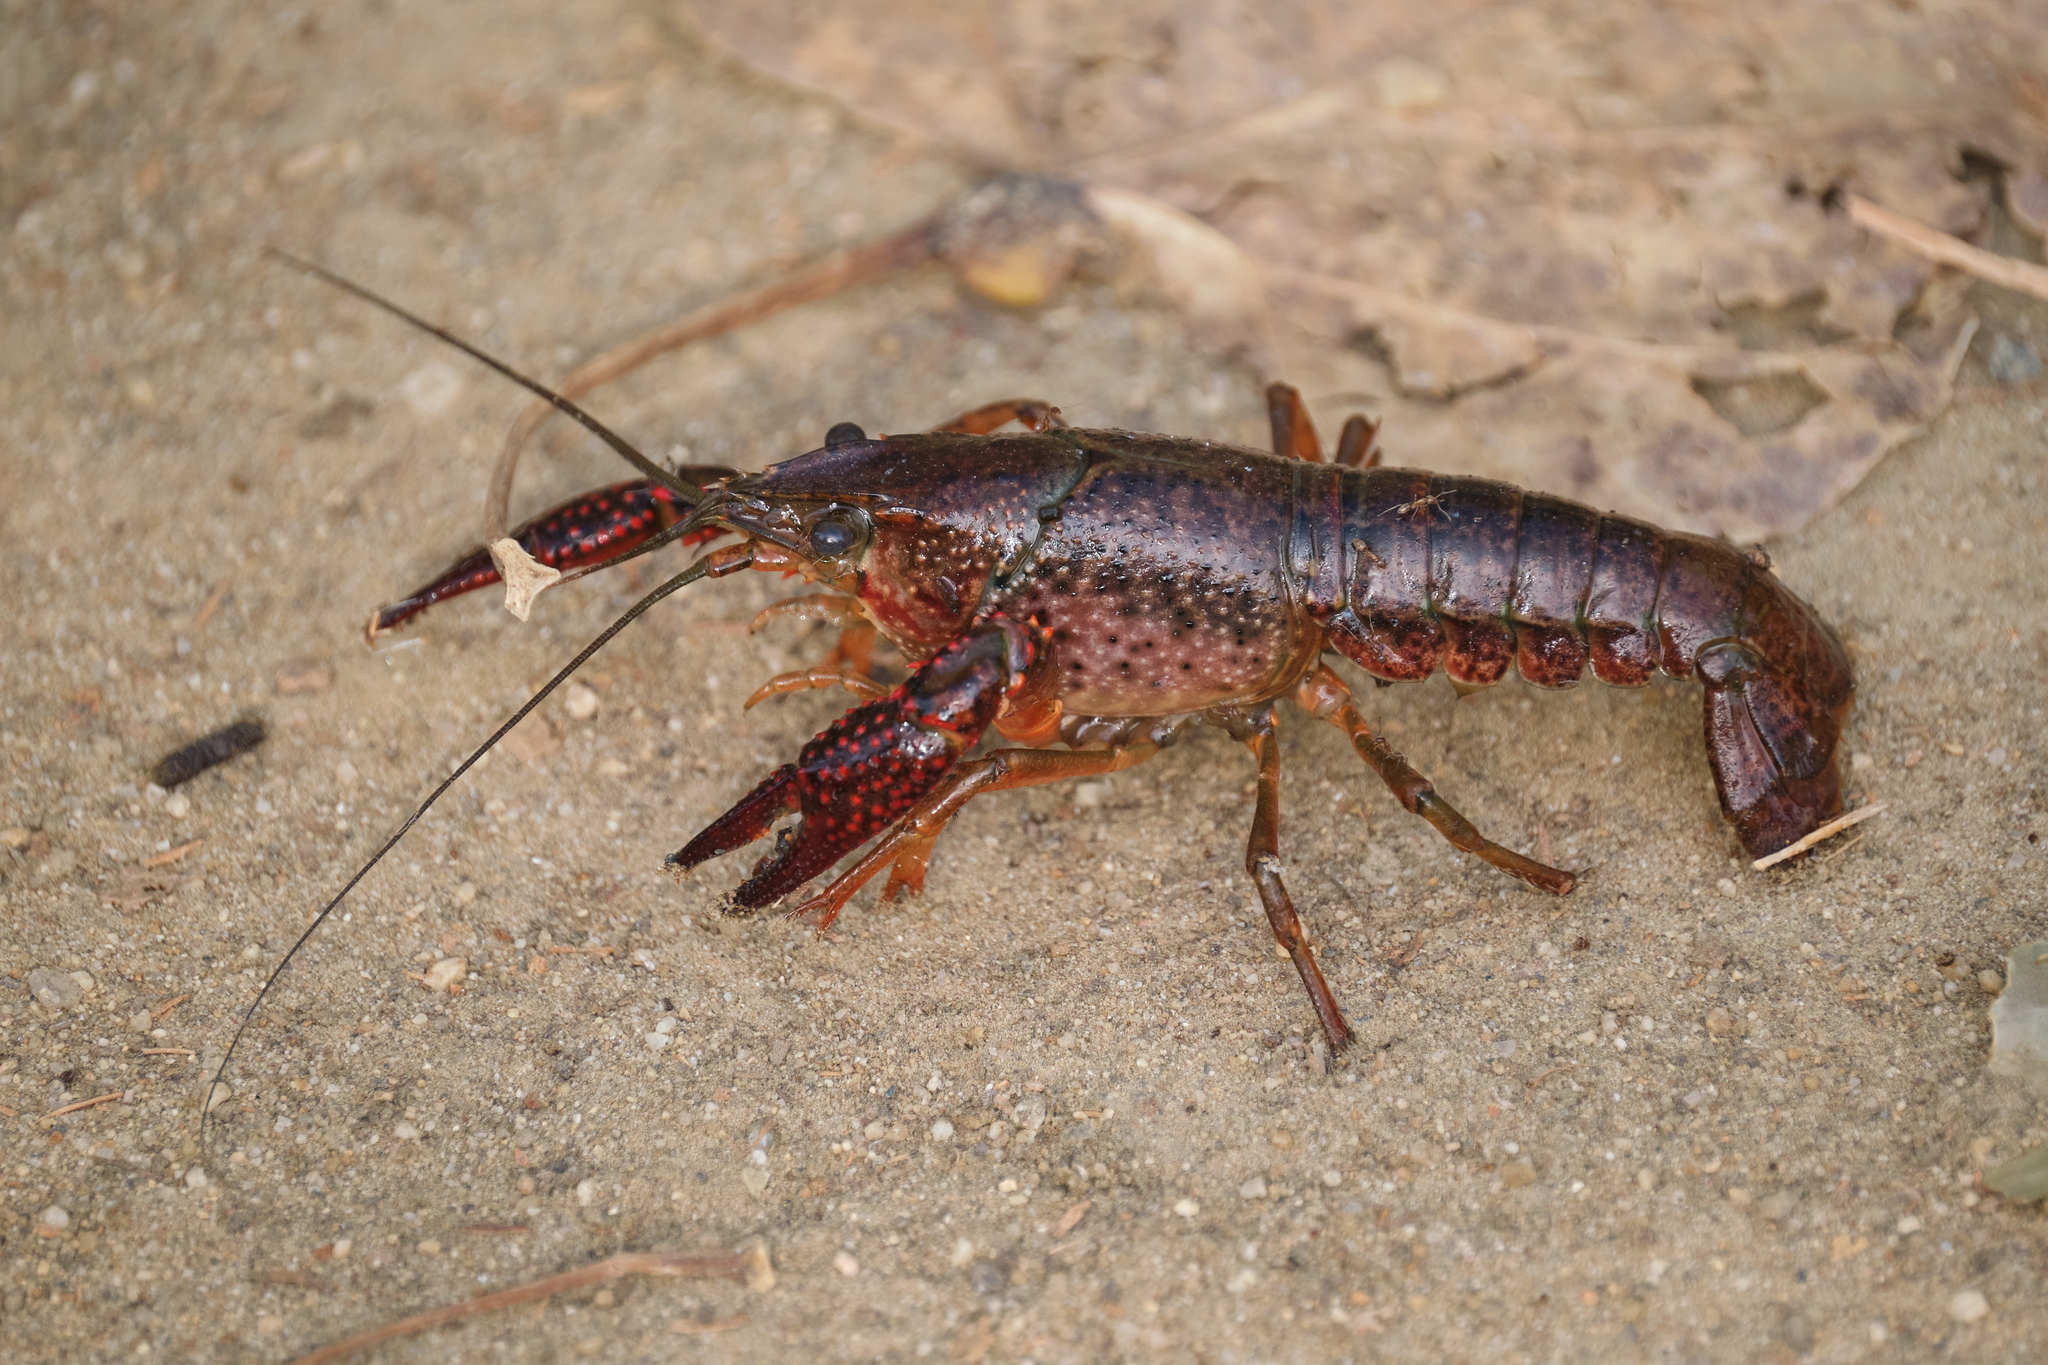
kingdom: Animalia
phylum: Arthropoda
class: Malacostraca
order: Decapoda
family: Cambaridae
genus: Procambarus
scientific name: Procambarus clarkii
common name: Red swamp crayfish
